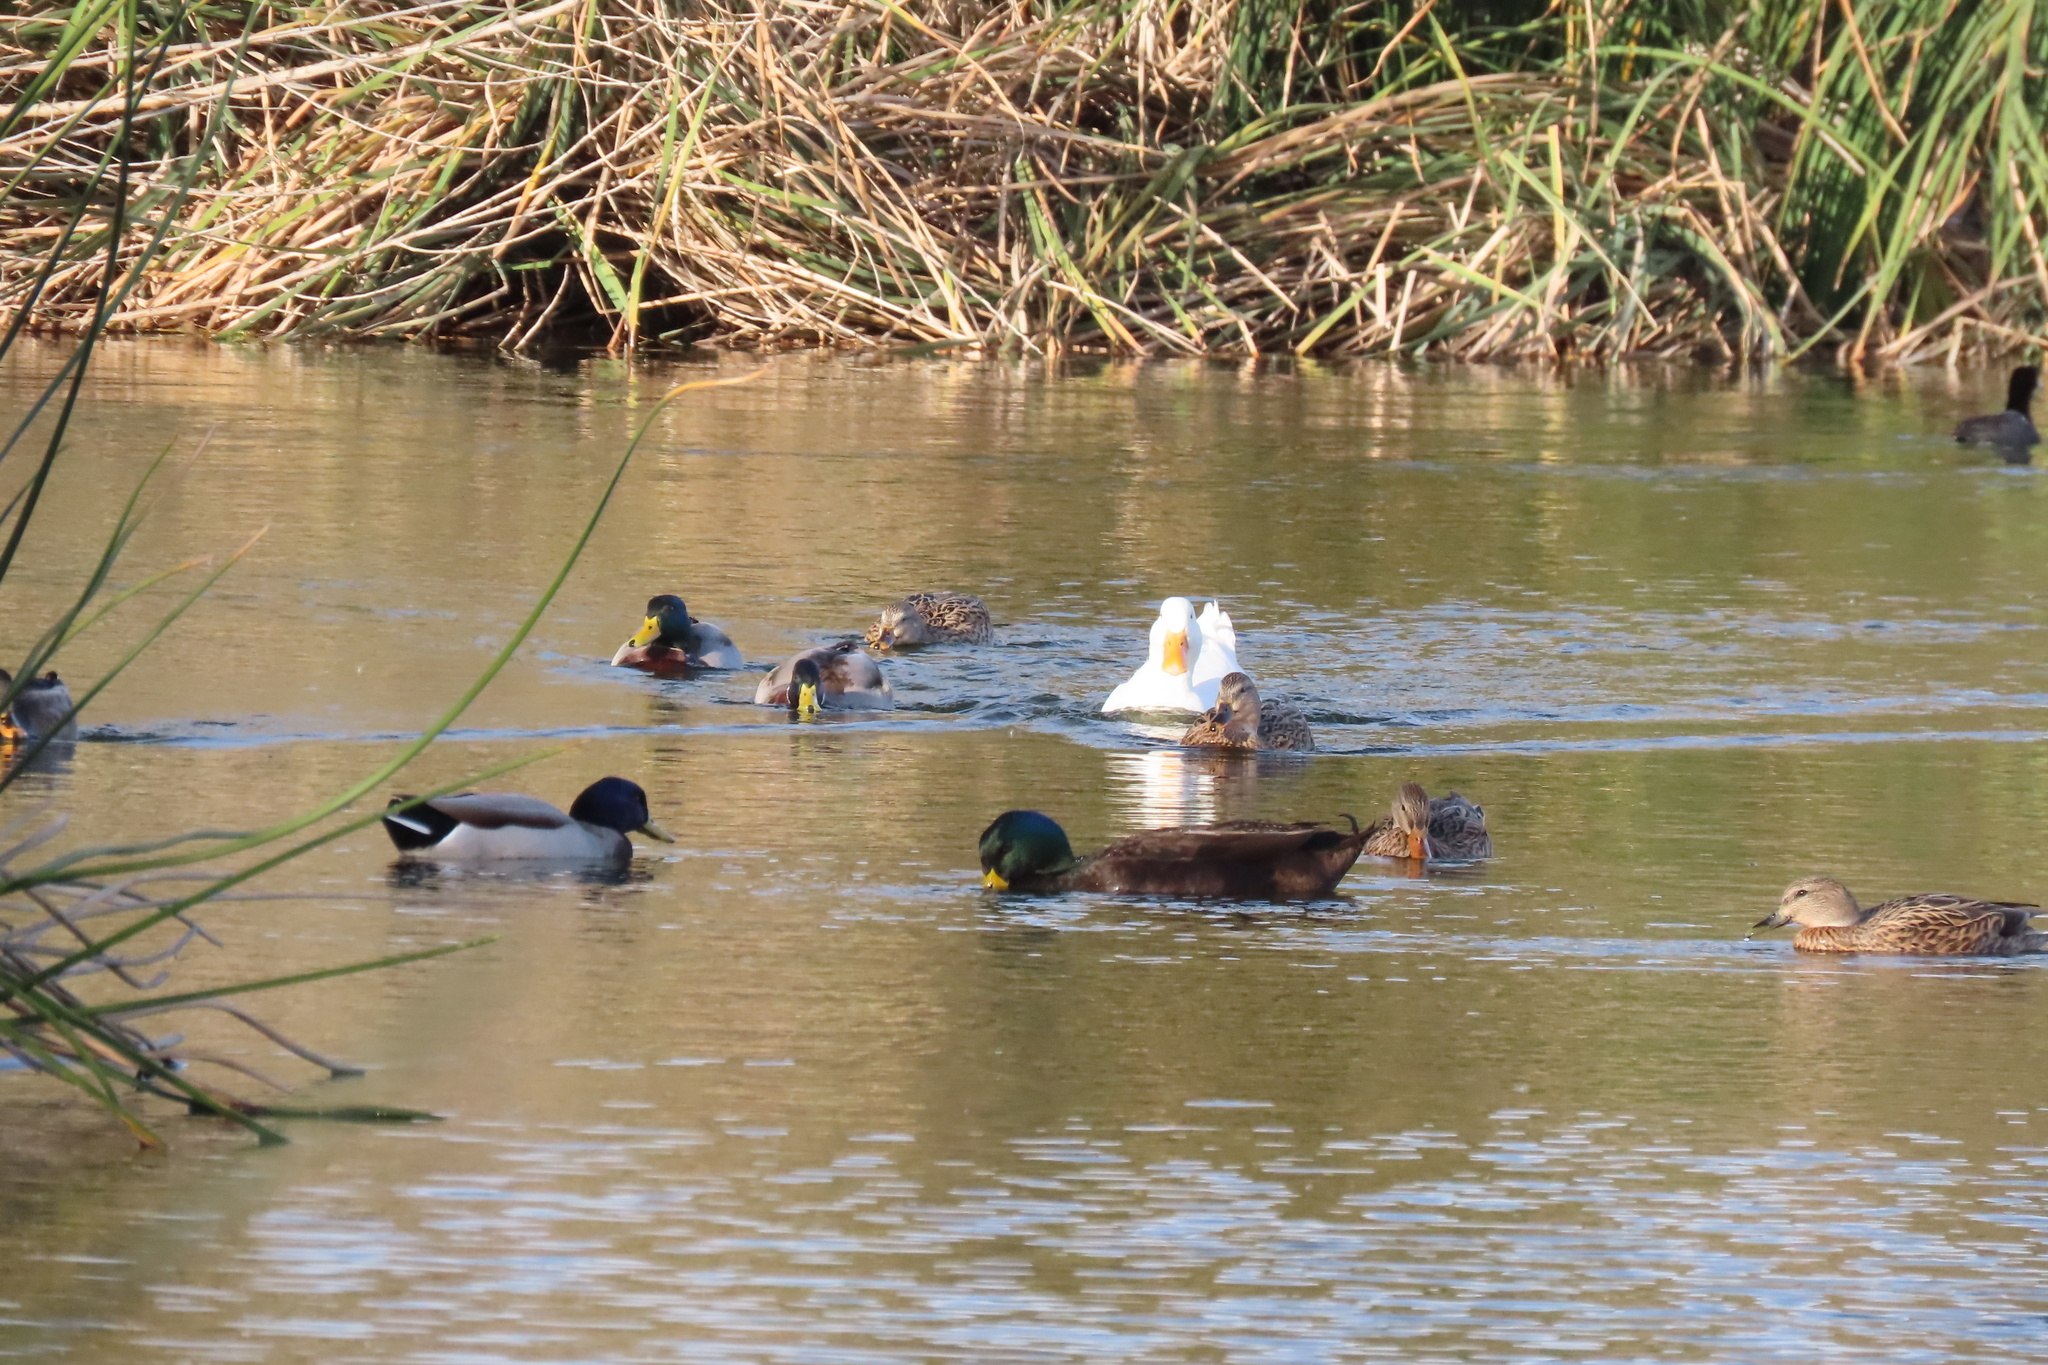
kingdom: Animalia
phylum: Chordata
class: Aves
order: Anseriformes
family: Anatidae
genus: Anas
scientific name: Anas platyrhynchos
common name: Mallard
